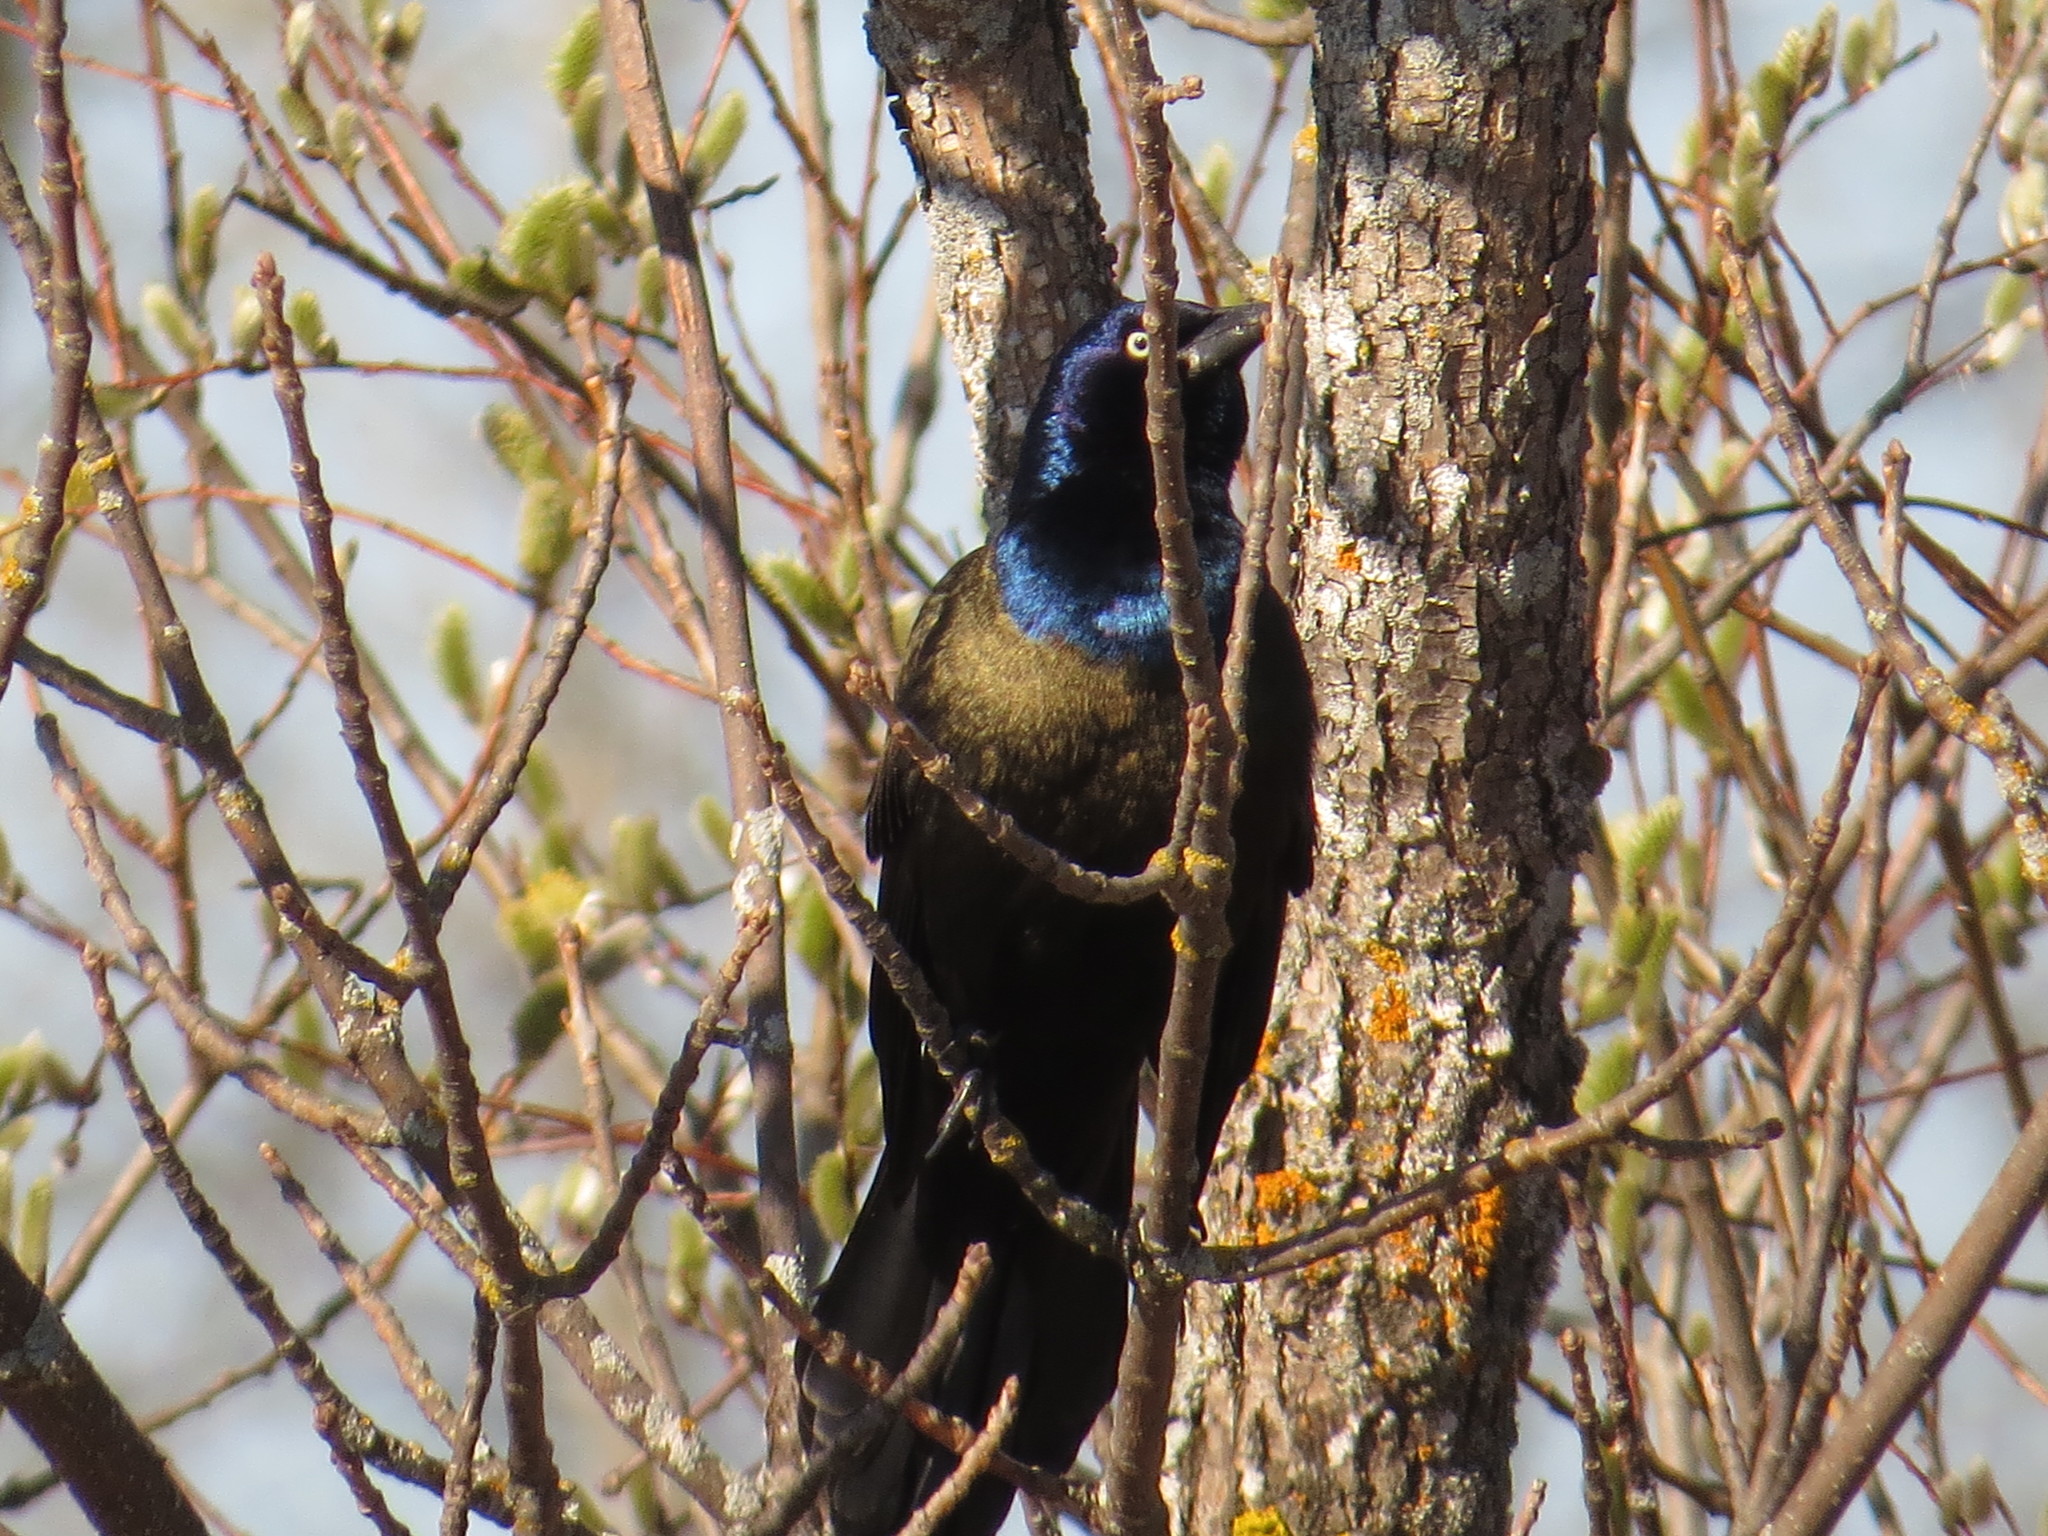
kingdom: Animalia
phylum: Chordata
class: Aves
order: Passeriformes
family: Icteridae
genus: Quiscalus
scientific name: Quiscalus quiscula
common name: Common grackle
